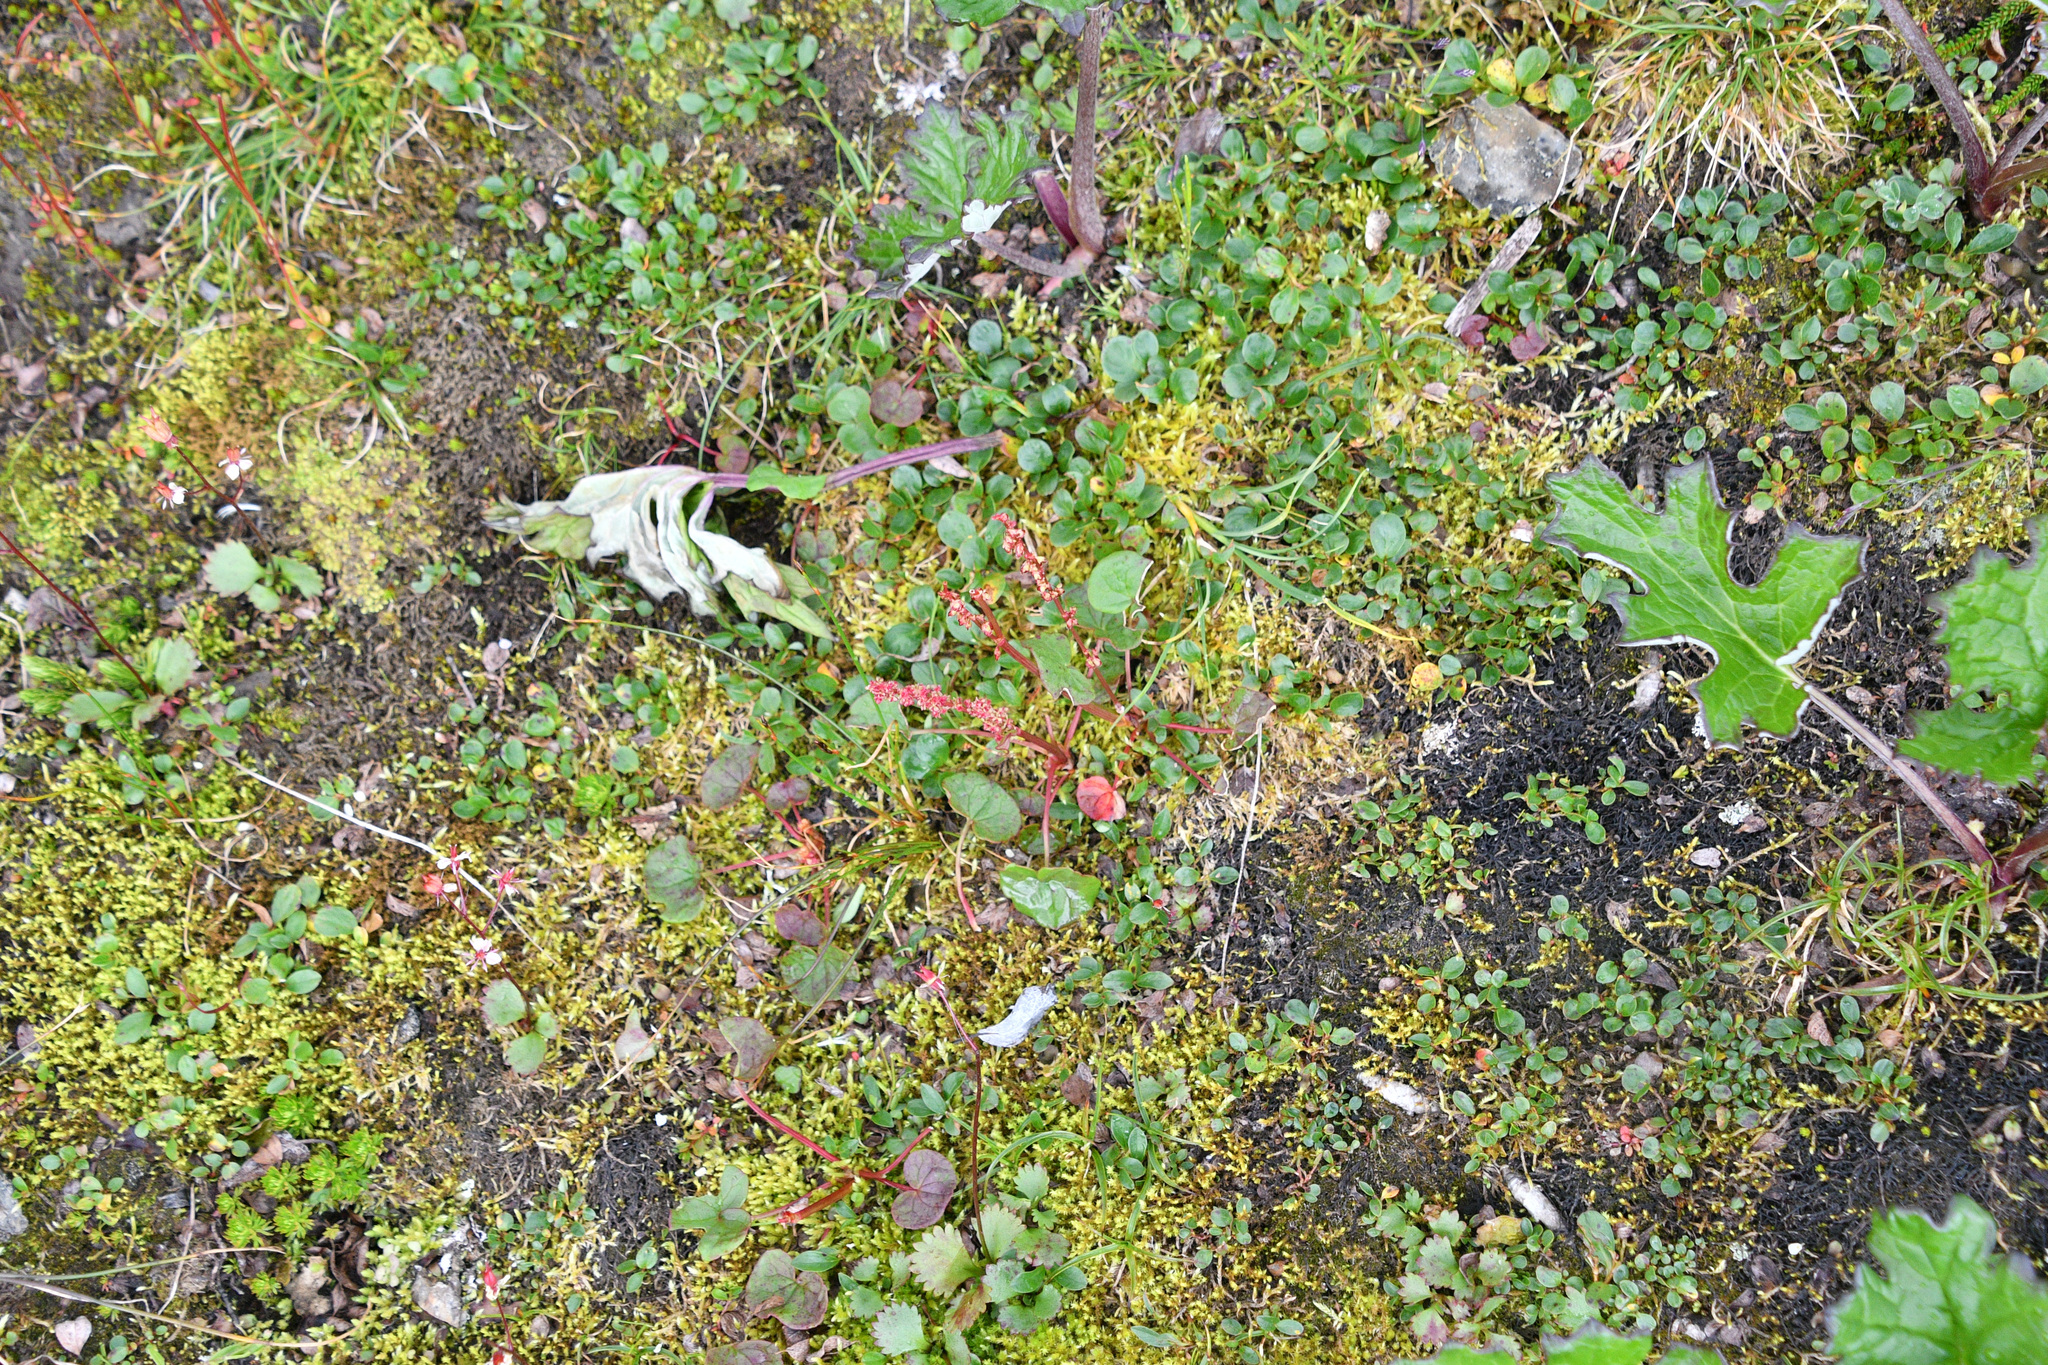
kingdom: Plantae
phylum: Tracheophyta
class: Magnoliopsida
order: Caryophyllales
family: Polygonaceae
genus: Oxyria
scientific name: Oxyria digyna
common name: Alpine mountain-sorrel
